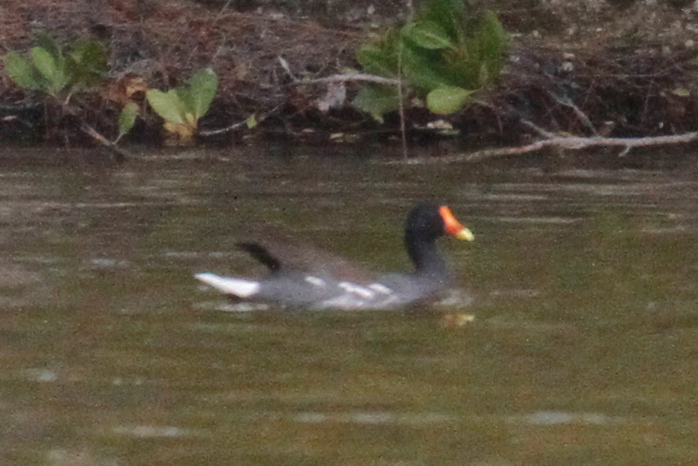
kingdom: Animalia
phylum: Chordata
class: Aves
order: Gruiformes
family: Rallidae
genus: Gallinula
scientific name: Gallinula chloropus
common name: Common moorhen
